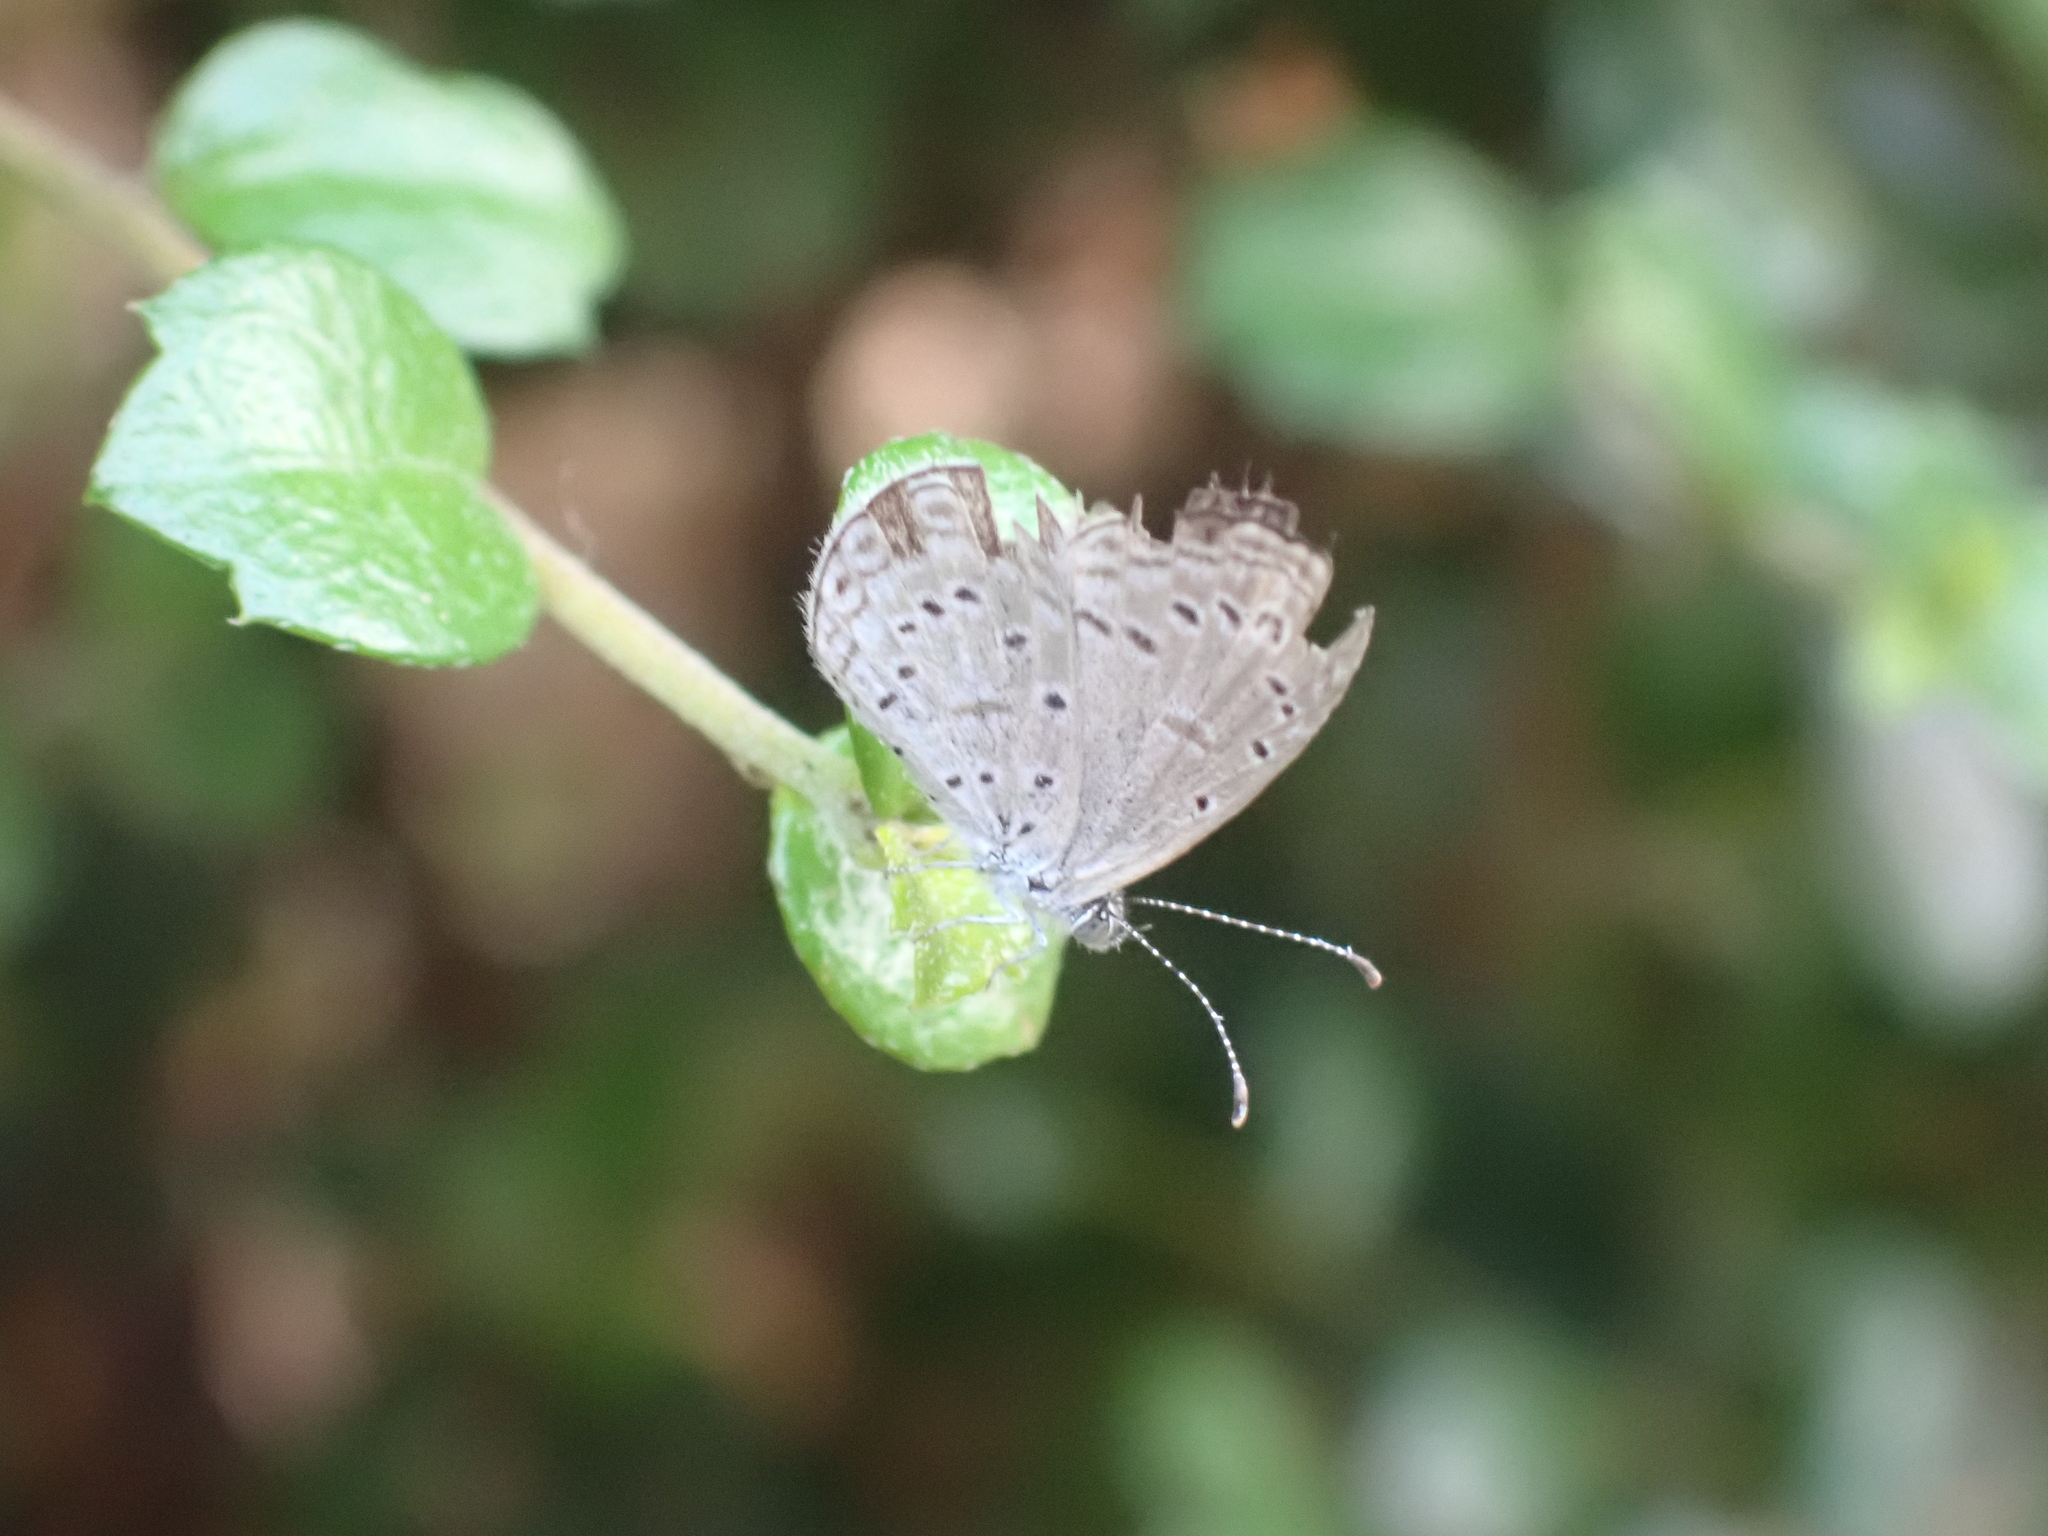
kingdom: Animalia
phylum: Arthropoda
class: Insecta
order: Lepidoptera
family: Lycaenidae
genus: Zizula
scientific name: Zizula hylax
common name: Gaika blue
